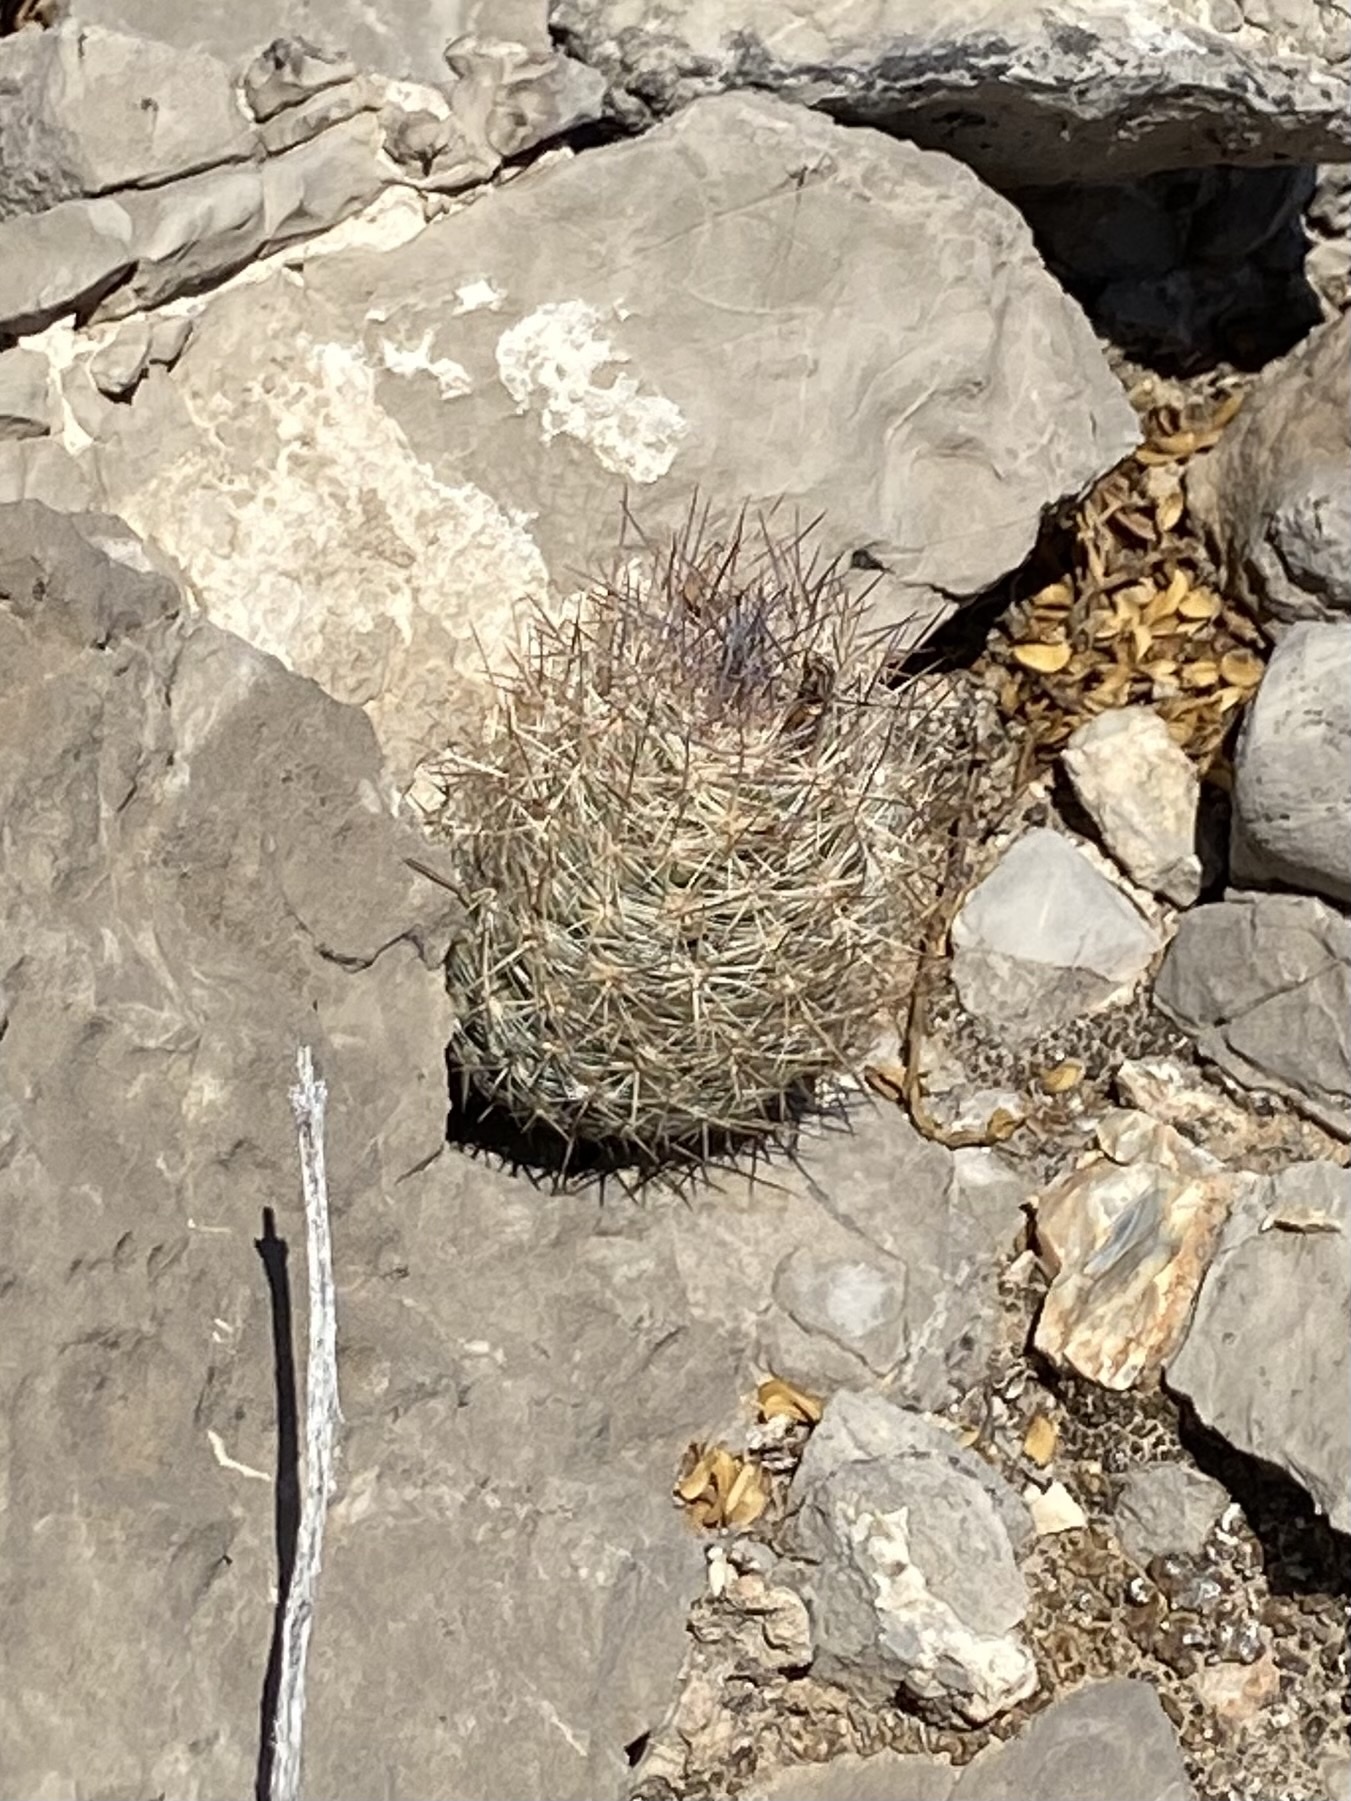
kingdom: Plantae
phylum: Tracheophyta
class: Magnoliopsida
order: Caryophyllales
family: Cactaceae
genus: Pelecyphora
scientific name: Pelecyphora tuberculosa
